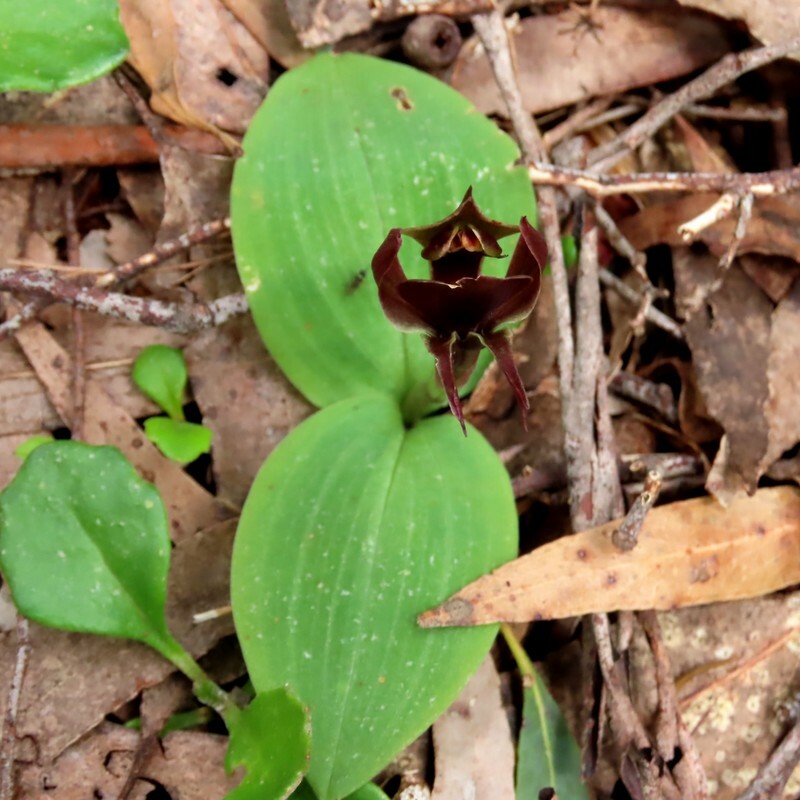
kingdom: Plantae
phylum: Tracheophyta
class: Liliopsida
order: Asparagales
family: Orchidaceae
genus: Chiloglottis
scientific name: Chiloglottis valida
